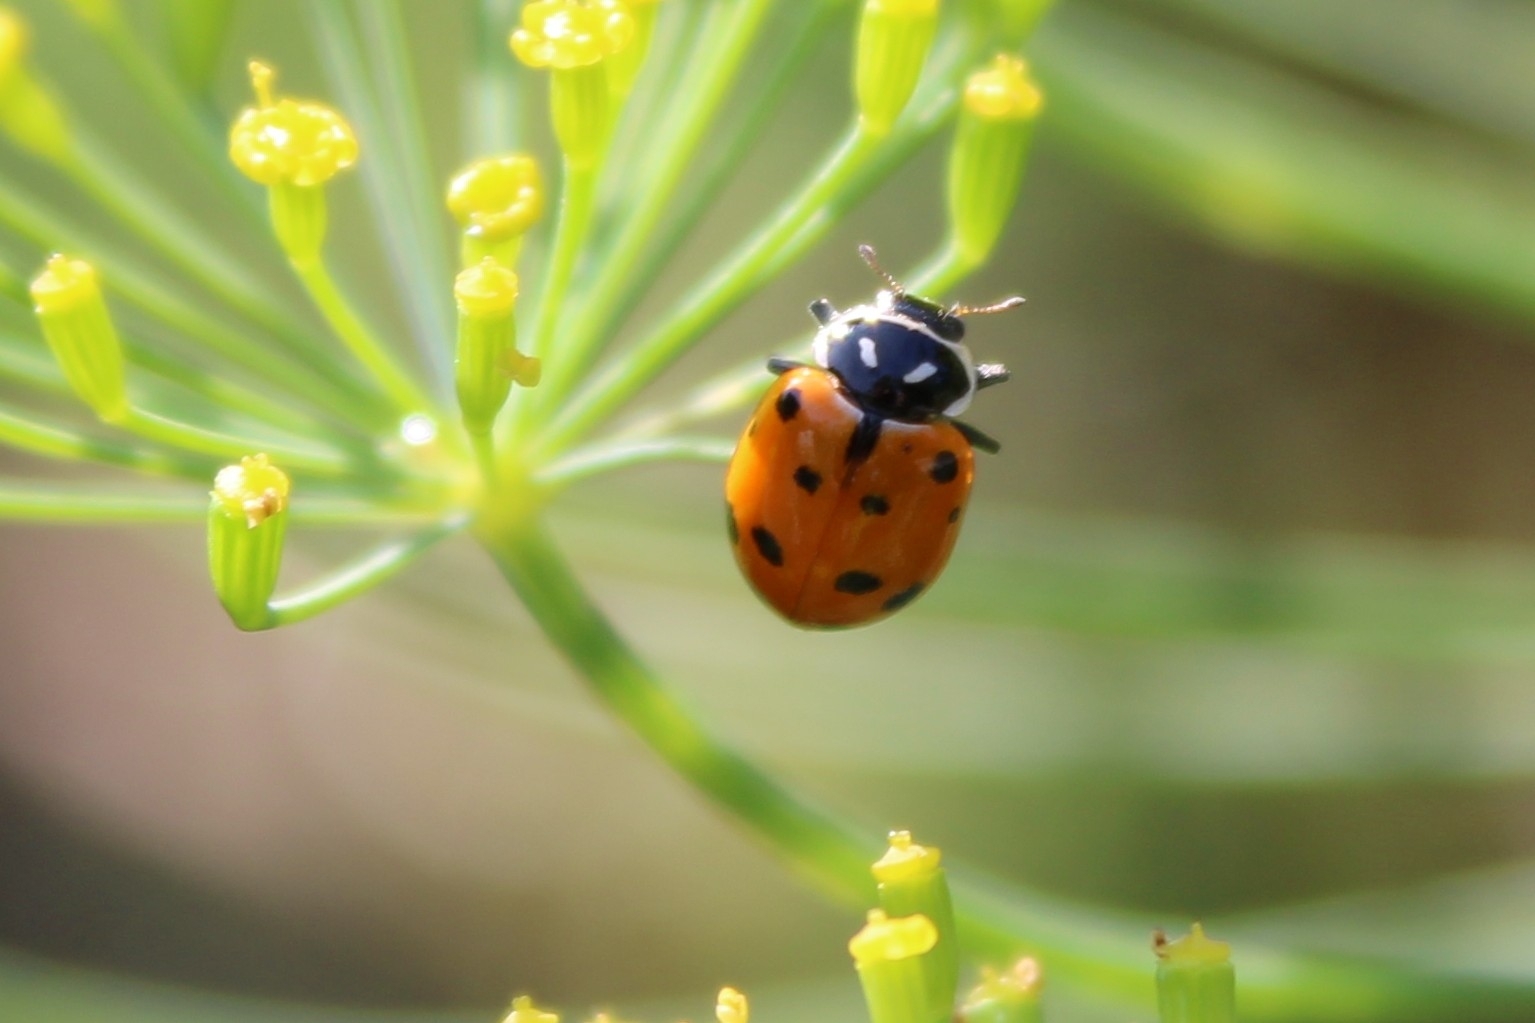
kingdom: Animalia
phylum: Arthropoda
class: Insecta
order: Coleoptera
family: Coccinellidae
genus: Hippodamia
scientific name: Hippodamia convergens
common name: Convergent lady beetle
